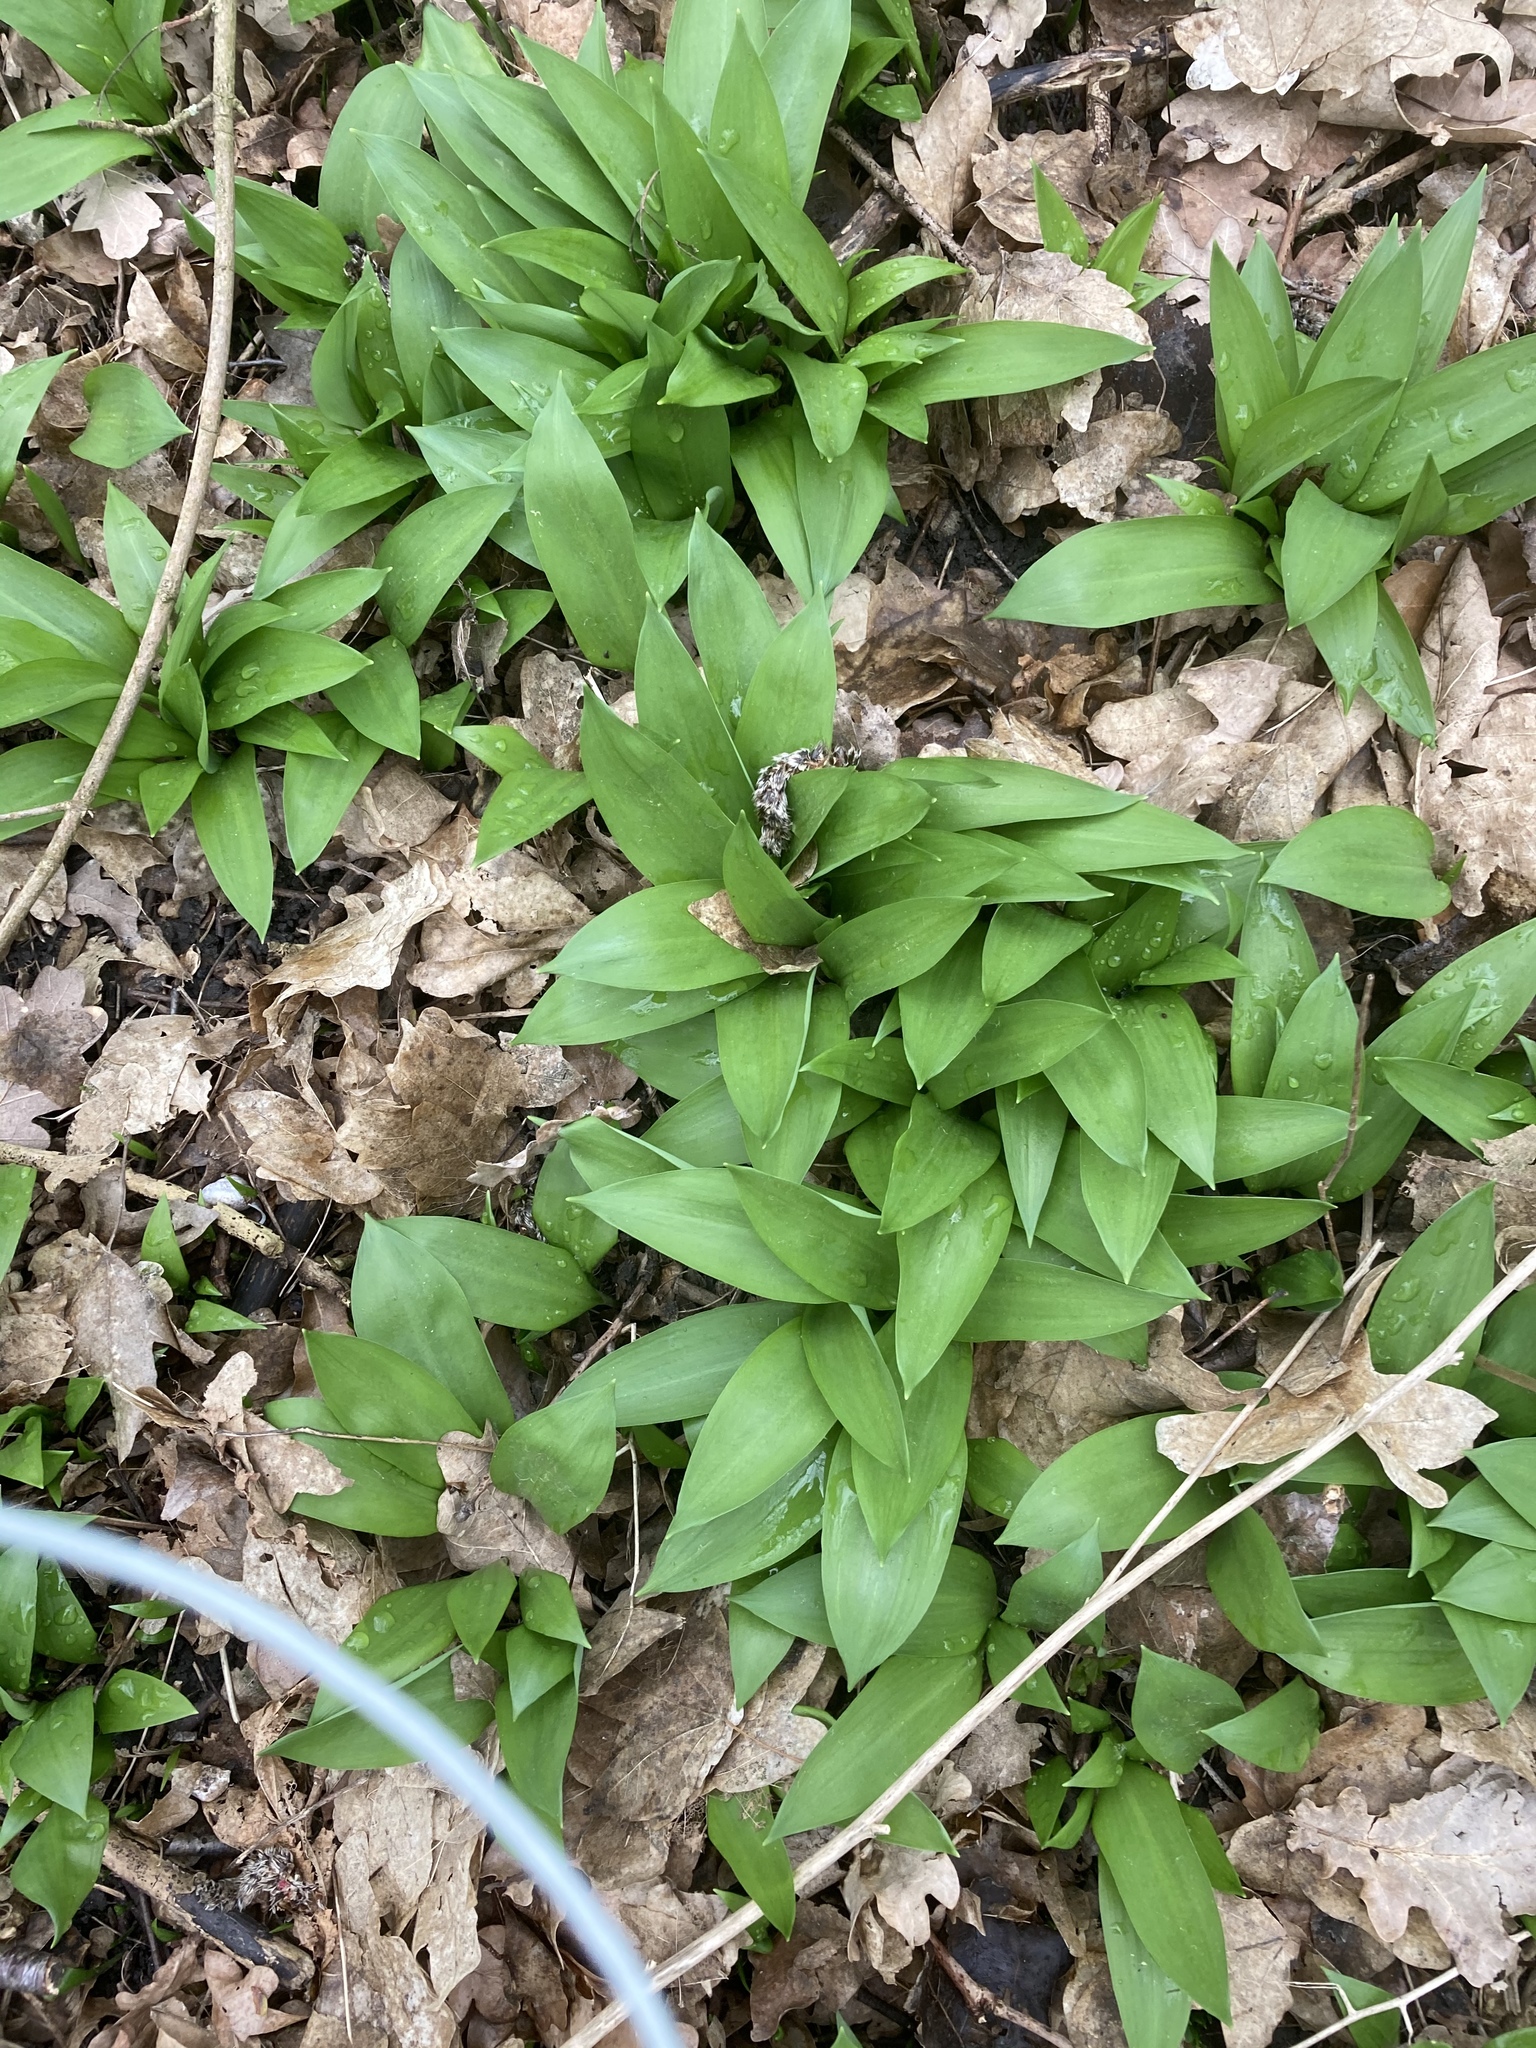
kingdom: Plantae
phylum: Tracheophyta
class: Liliopsida
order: Asparagales
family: Amaryllidaceae
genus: Allium
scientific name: Allium ursinum
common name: Ramsons
